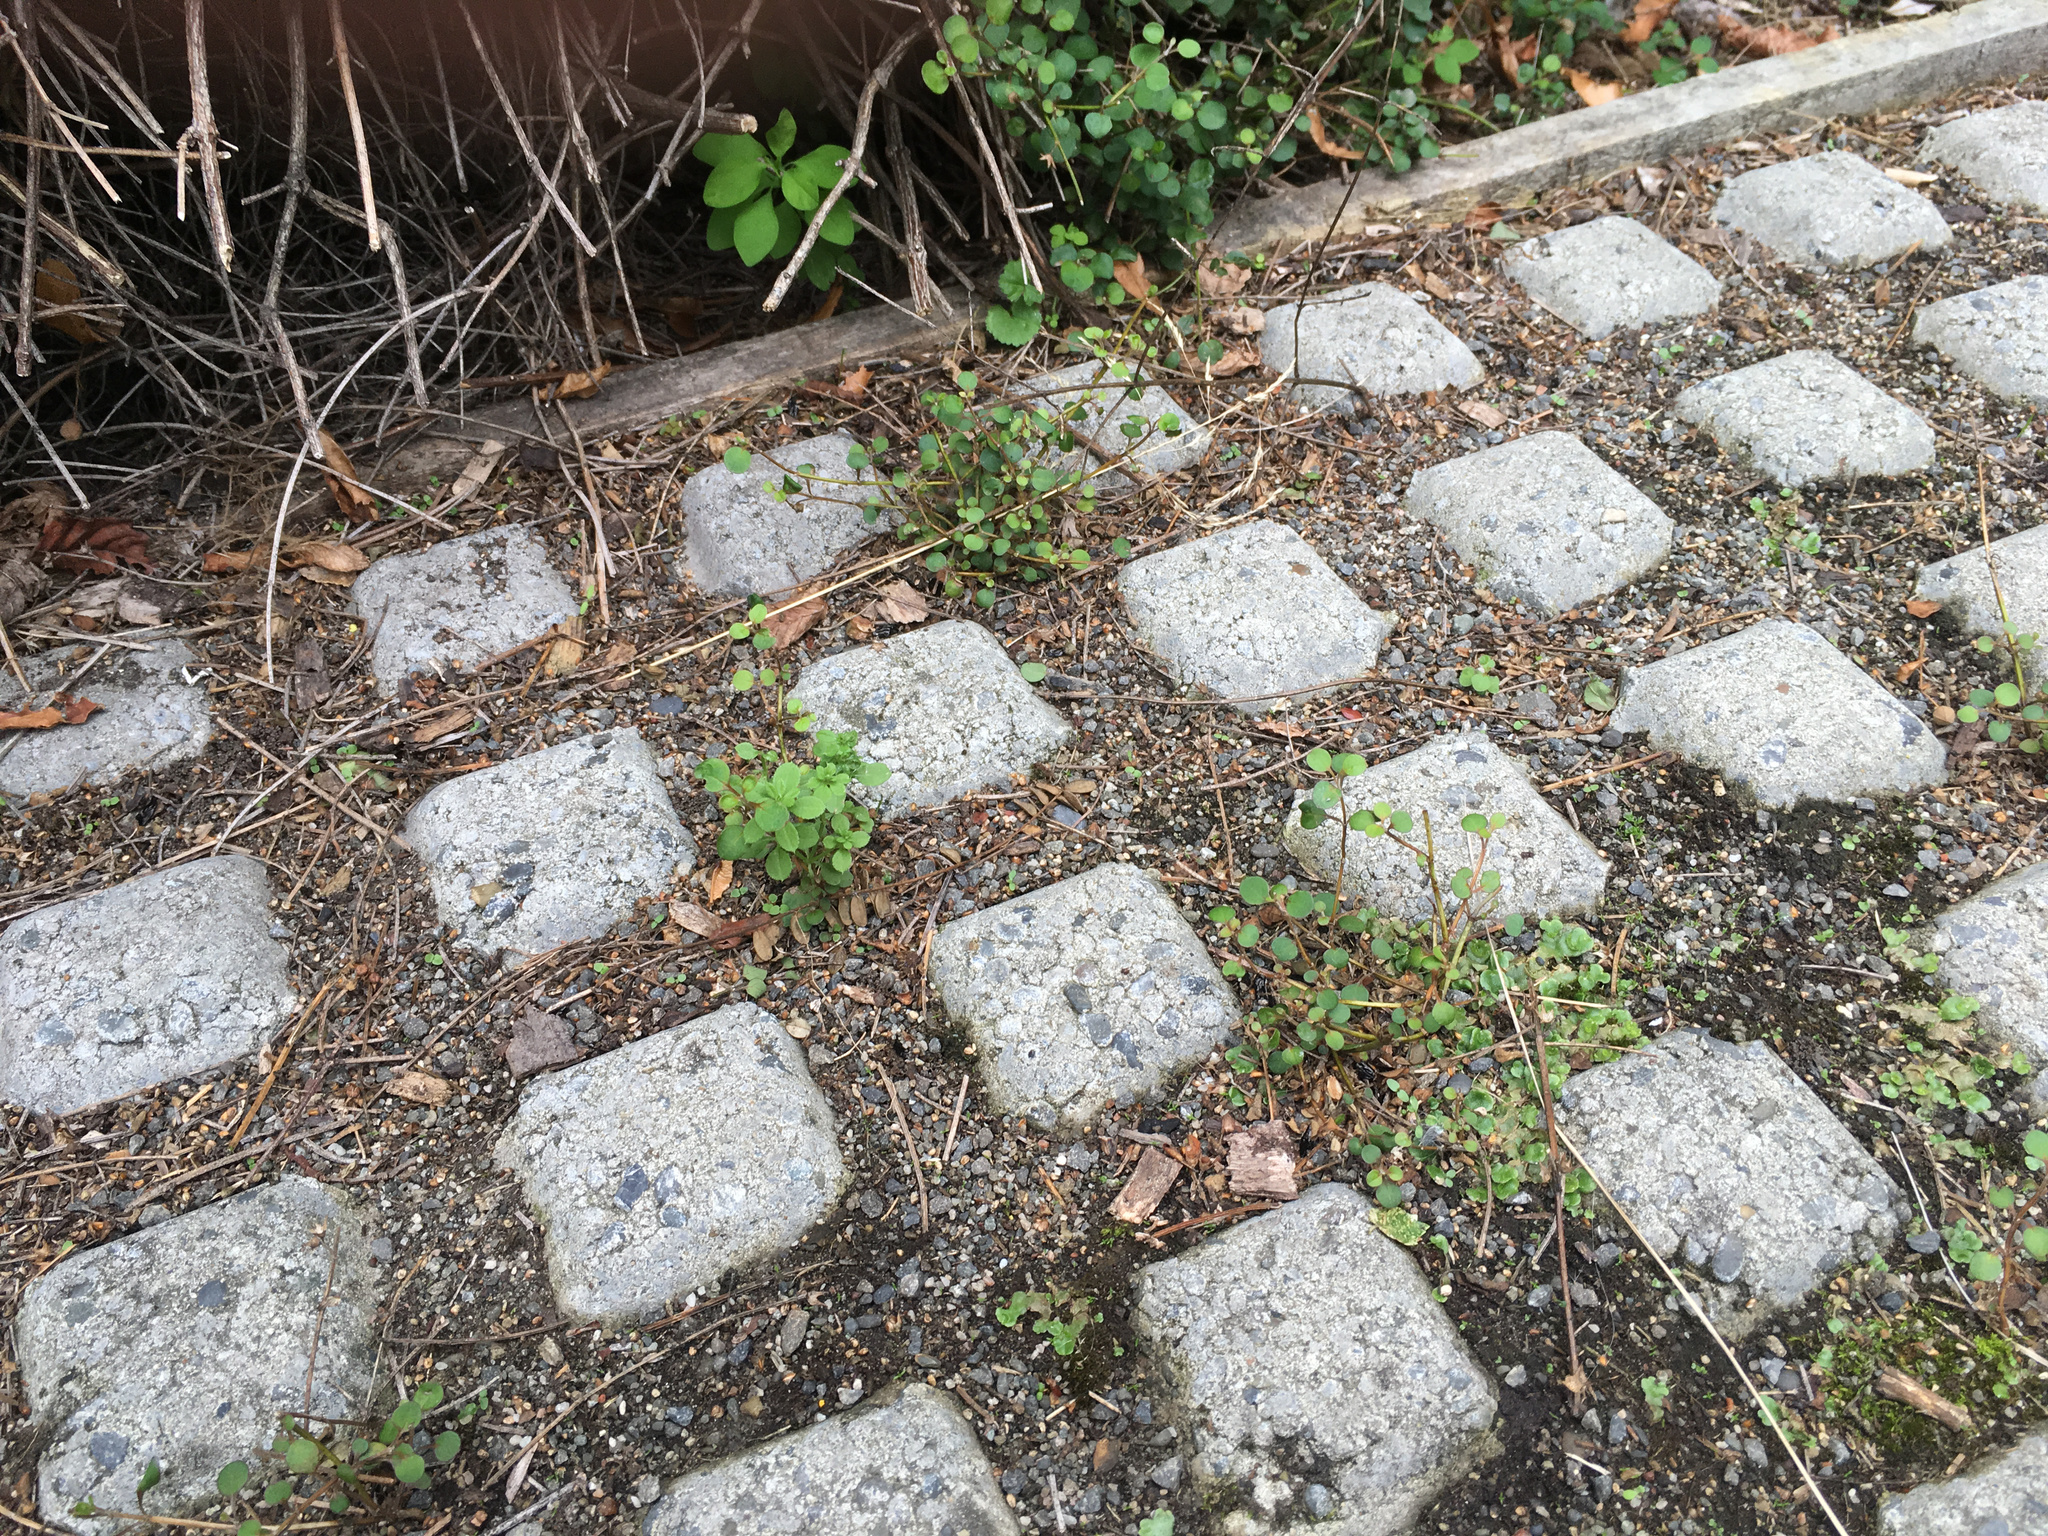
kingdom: Plantae
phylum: Tracheophyta
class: Magnoliopsida
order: Lamiales
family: Lamiaceae
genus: Teucrium
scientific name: Teucrium parvifolium
